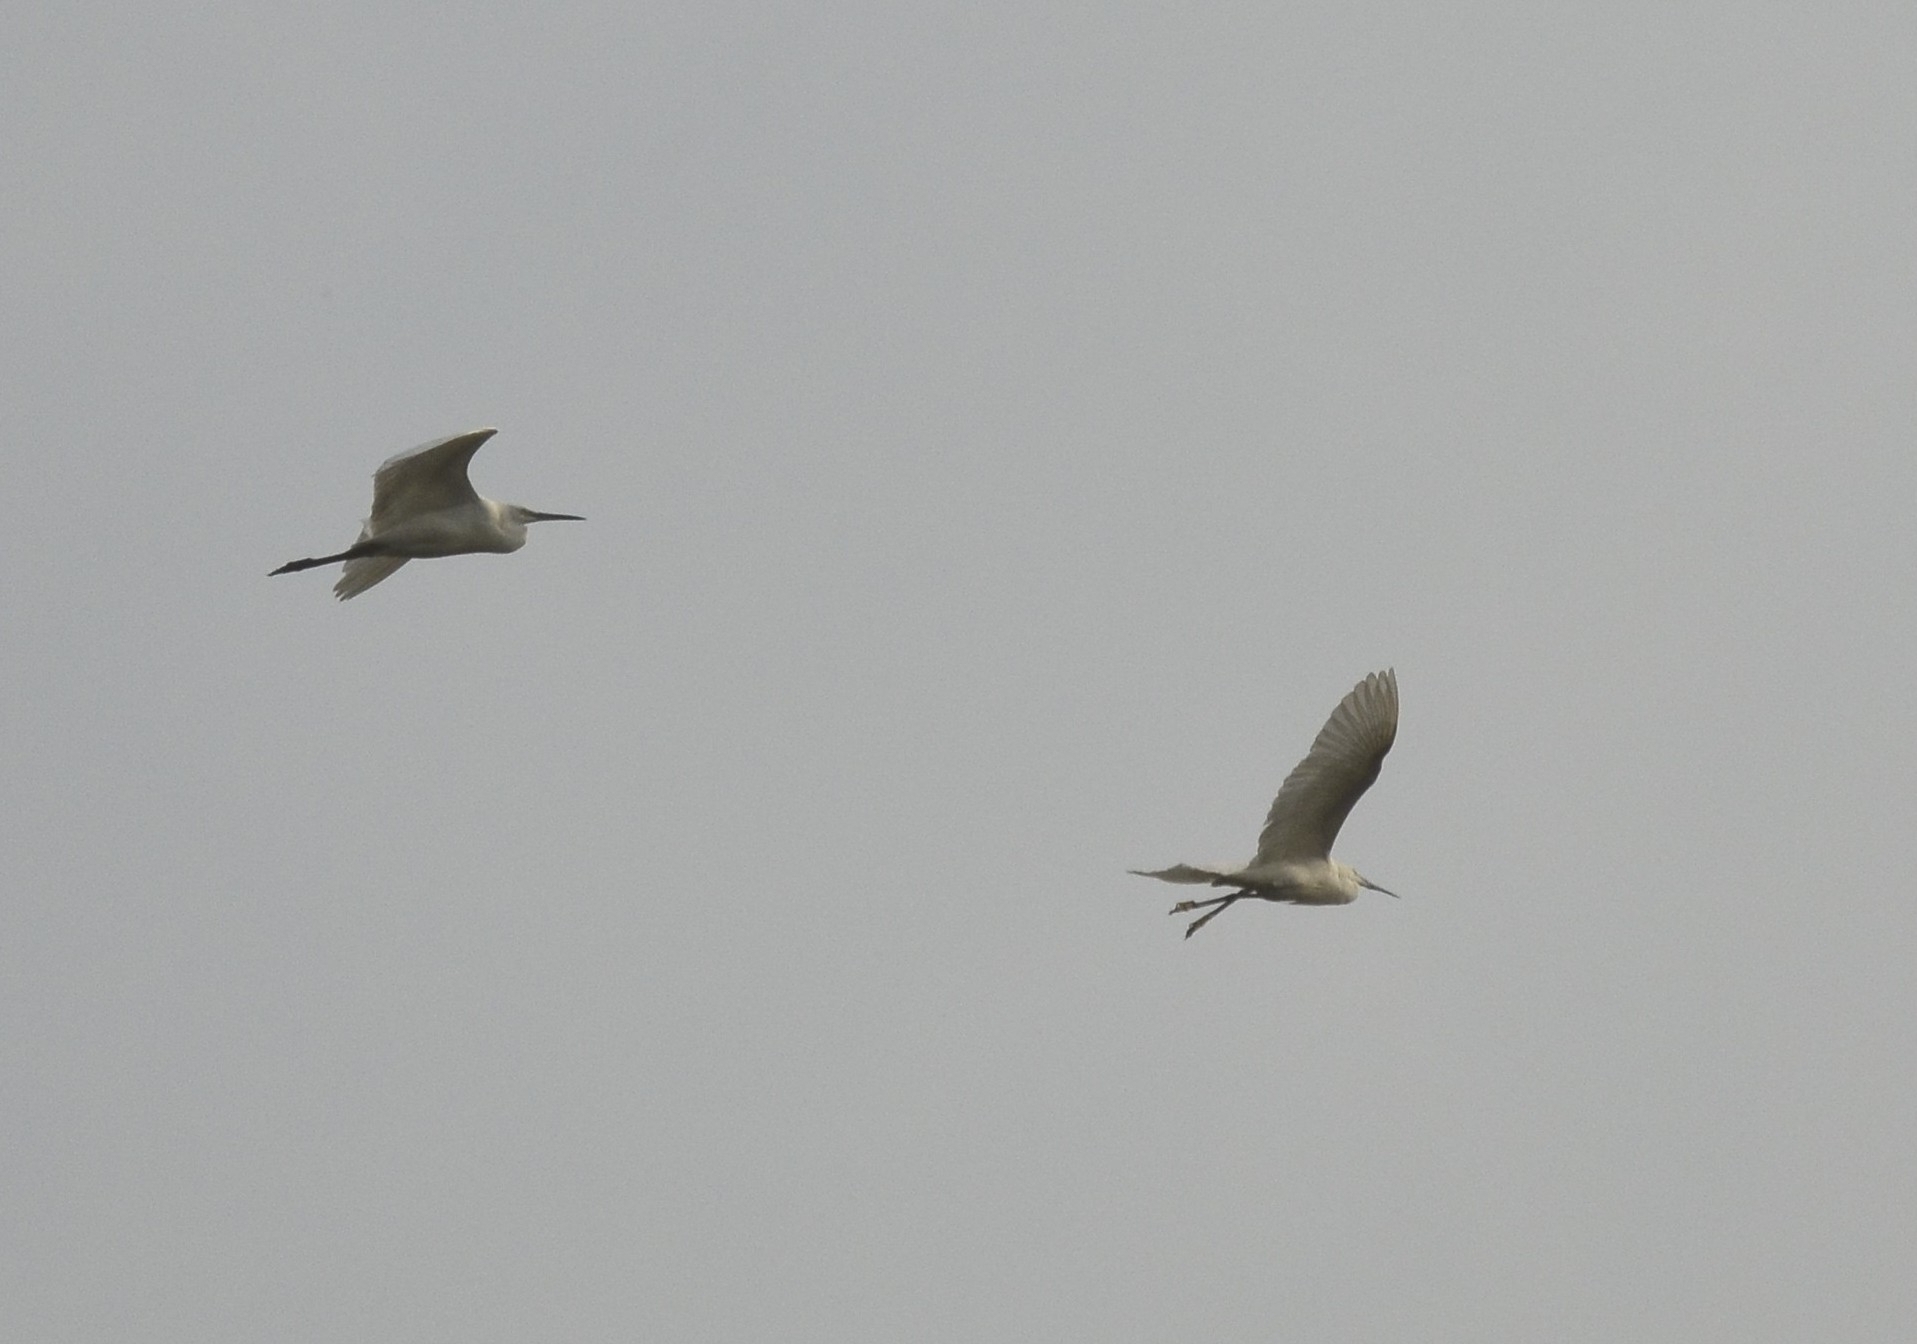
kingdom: Animalia
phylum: Chordata
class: Aves
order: Pelecaniformes
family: Ardeidae
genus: Egretta
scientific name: Egretta garzetta
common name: Little egret
